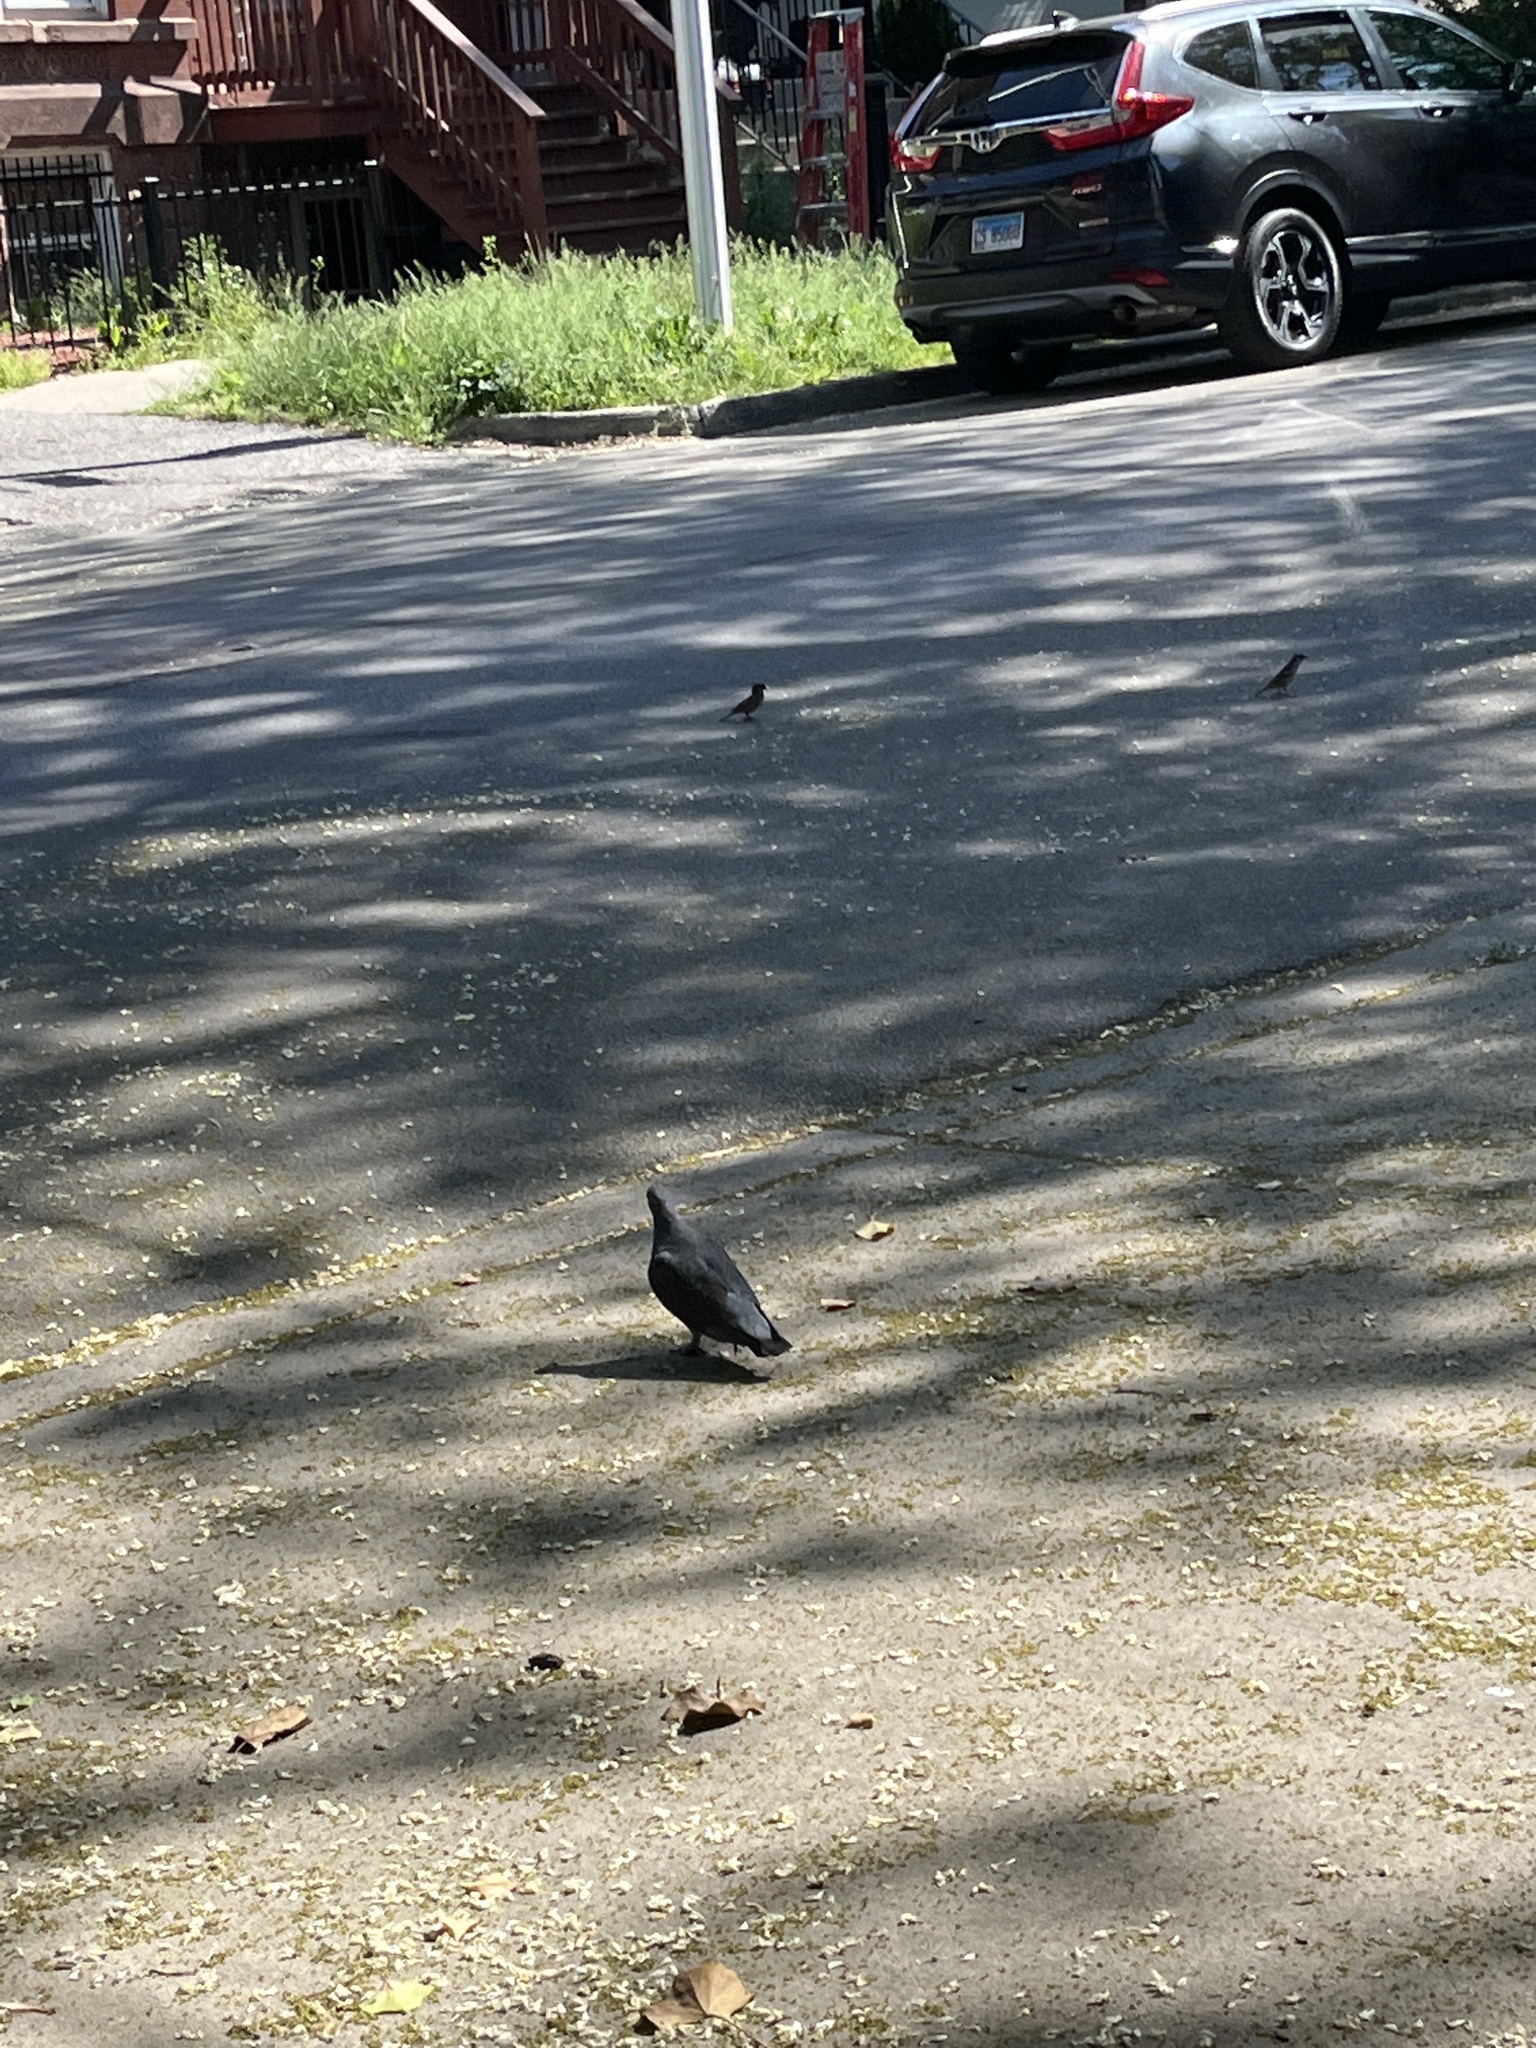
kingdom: Animalia
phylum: Chordata
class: Aves
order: Columbiformes
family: Columbidae
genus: Columba
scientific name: Columba livia
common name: Rock pigeon
